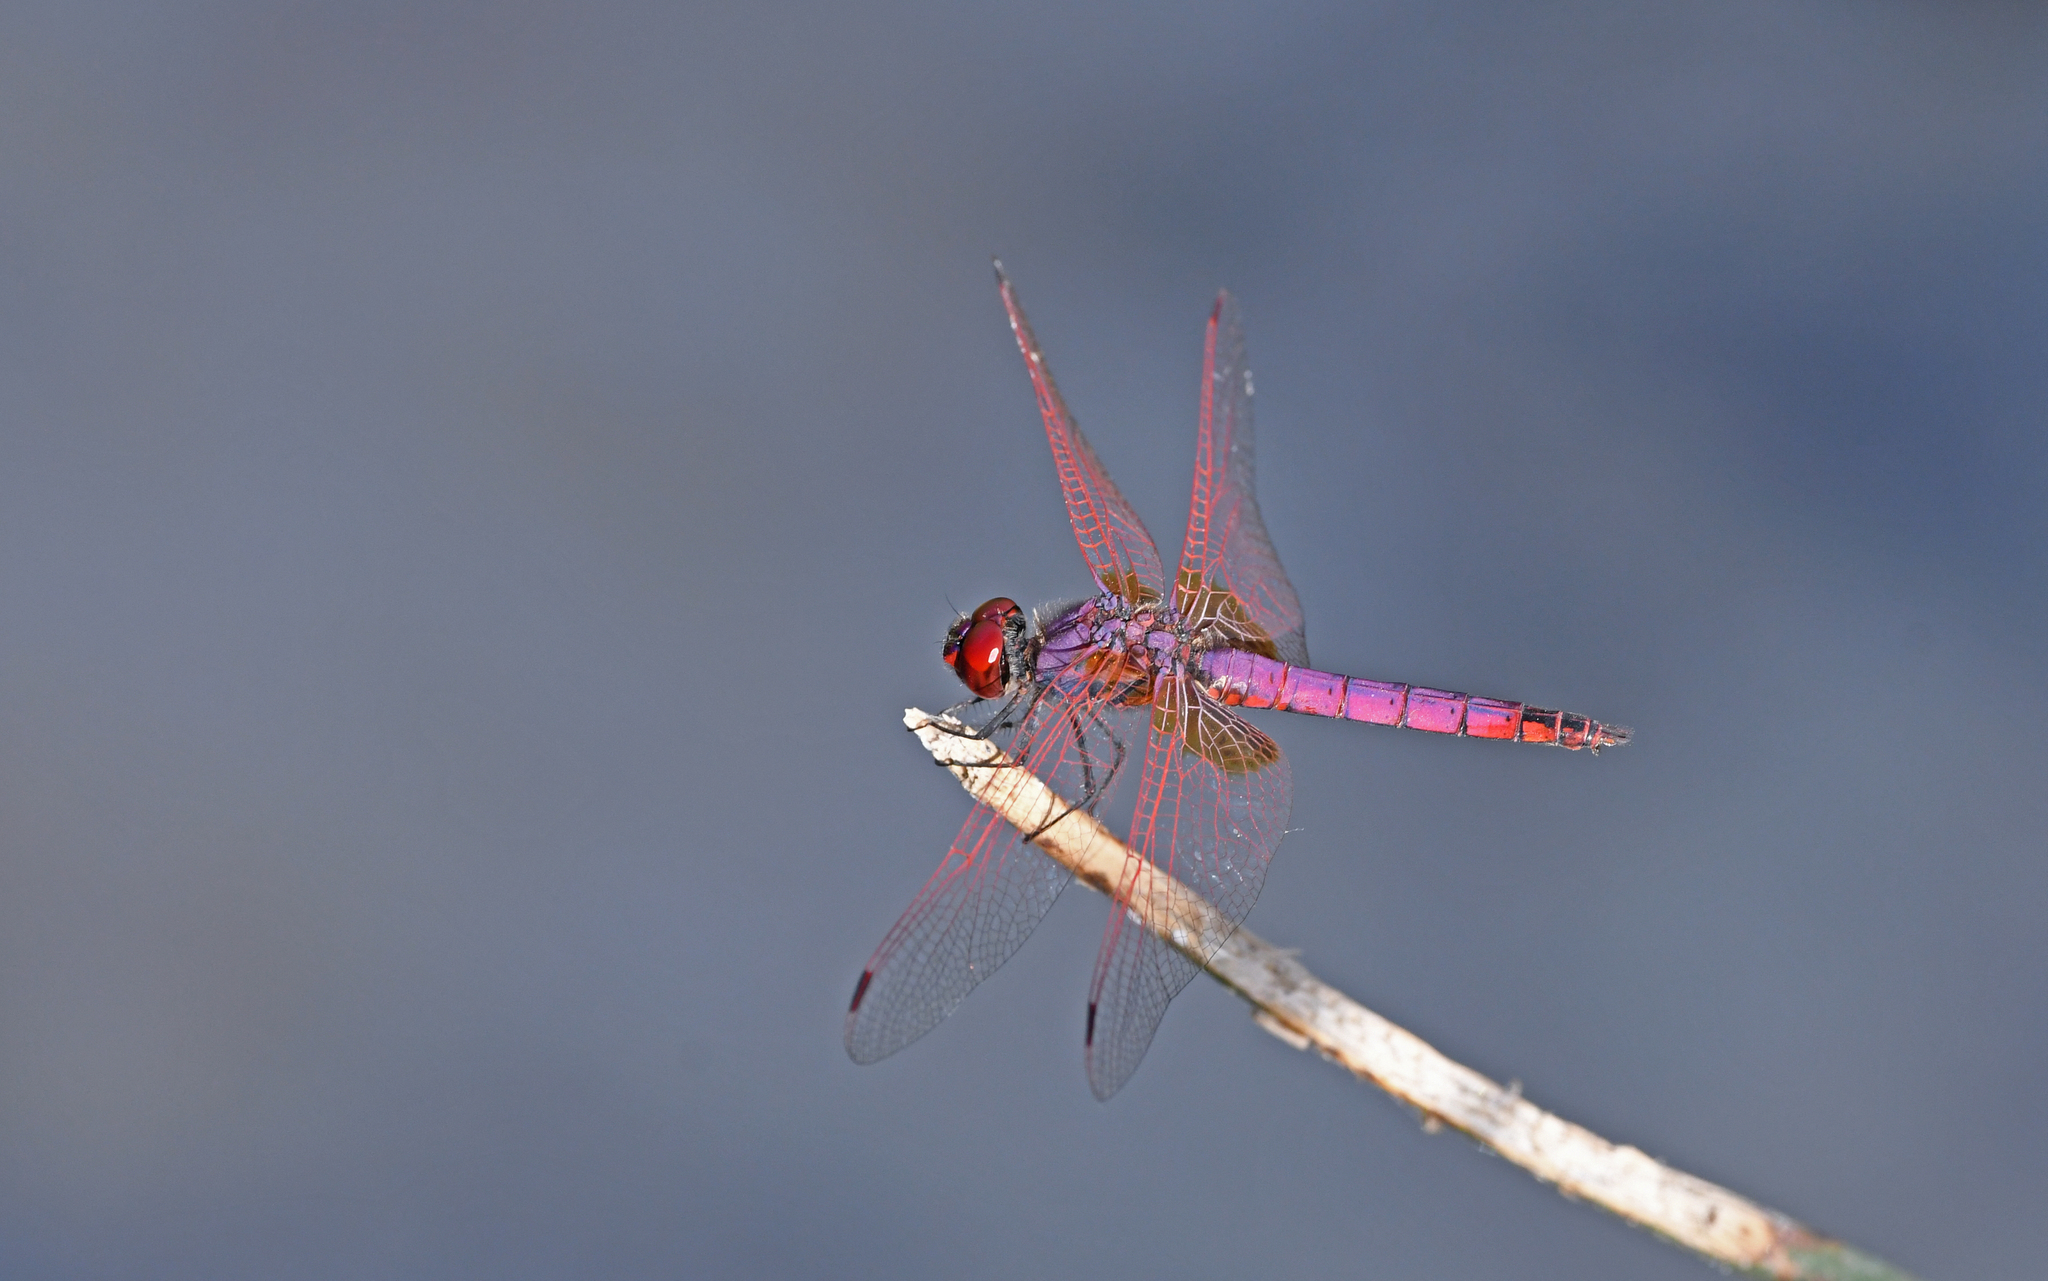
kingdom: Animalia
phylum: Arthropoda
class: Insecta
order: Odonata
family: Libellulidae
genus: Trithemis
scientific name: Trithemis annulata
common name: Violet dropwing
